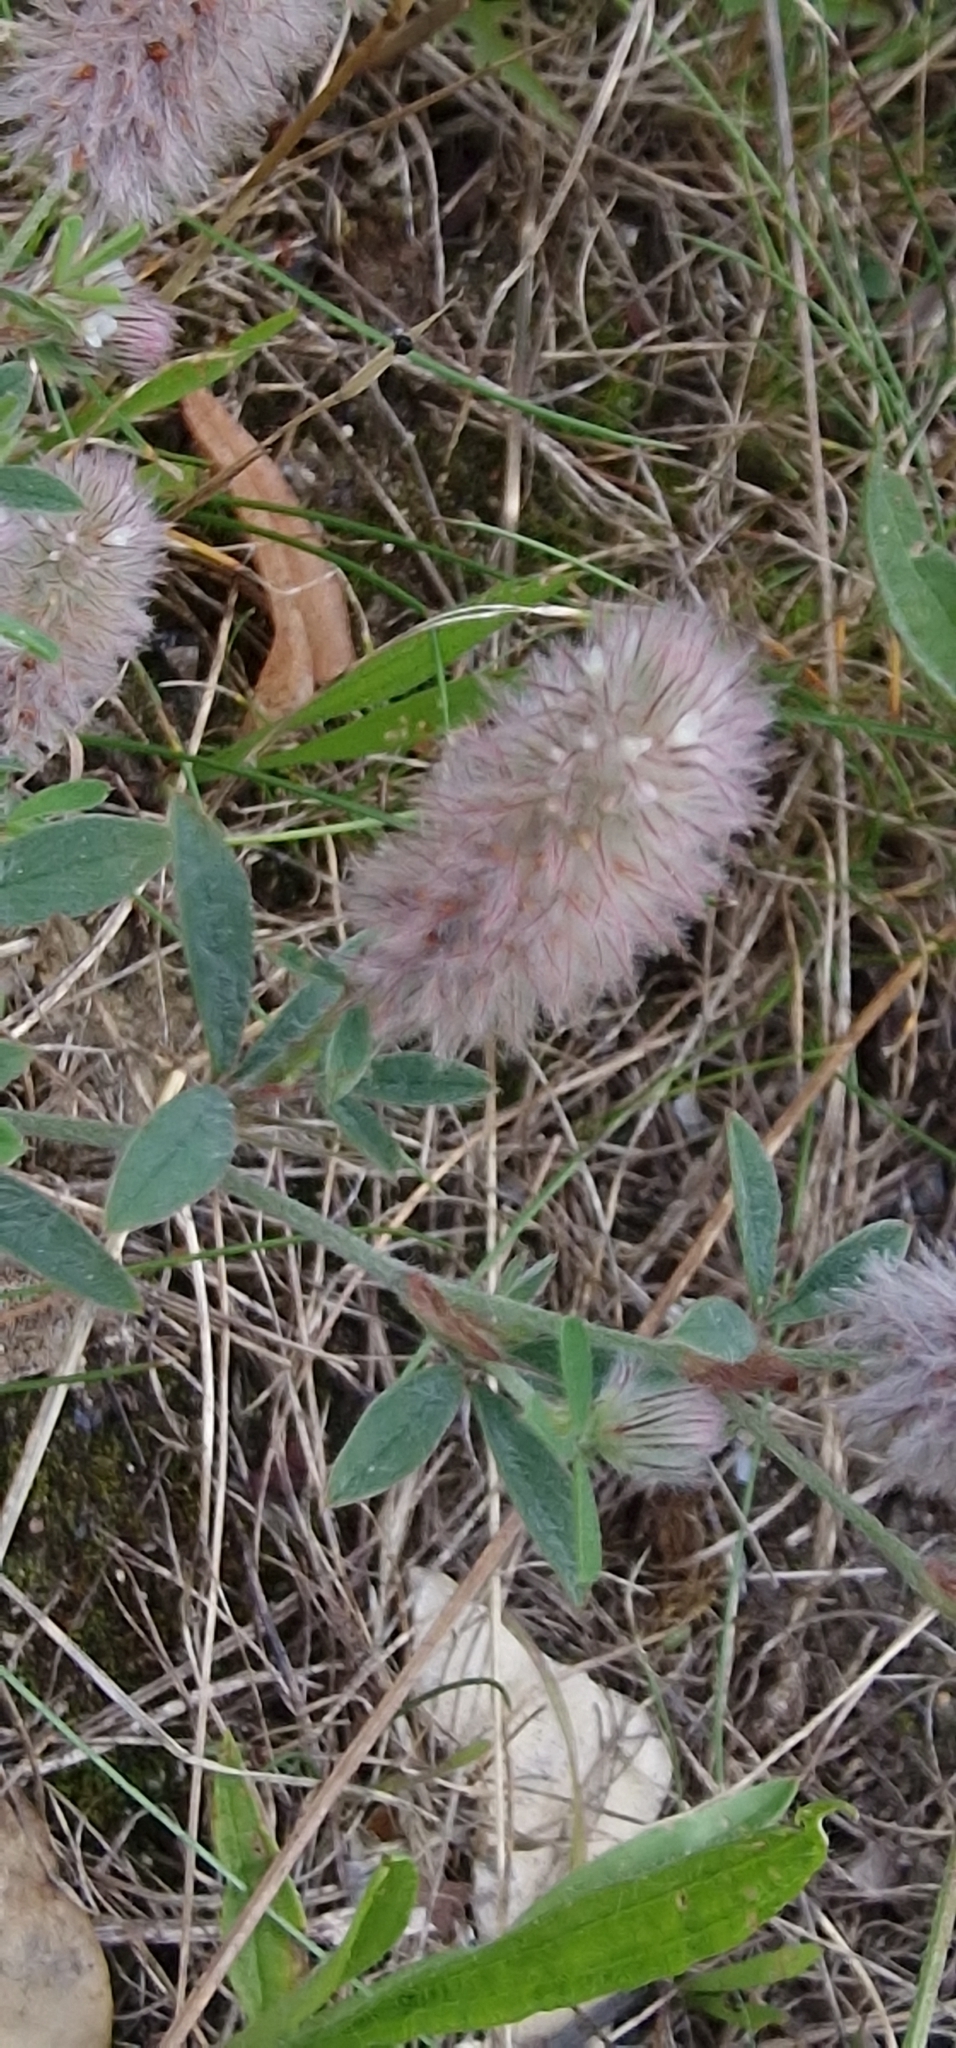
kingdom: Plantae
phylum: Tracheophyta
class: Magnoliopsida
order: Fabales
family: Fabaceae
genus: Trifolium
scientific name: Trifolium arvense
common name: Hare's-foot clover
